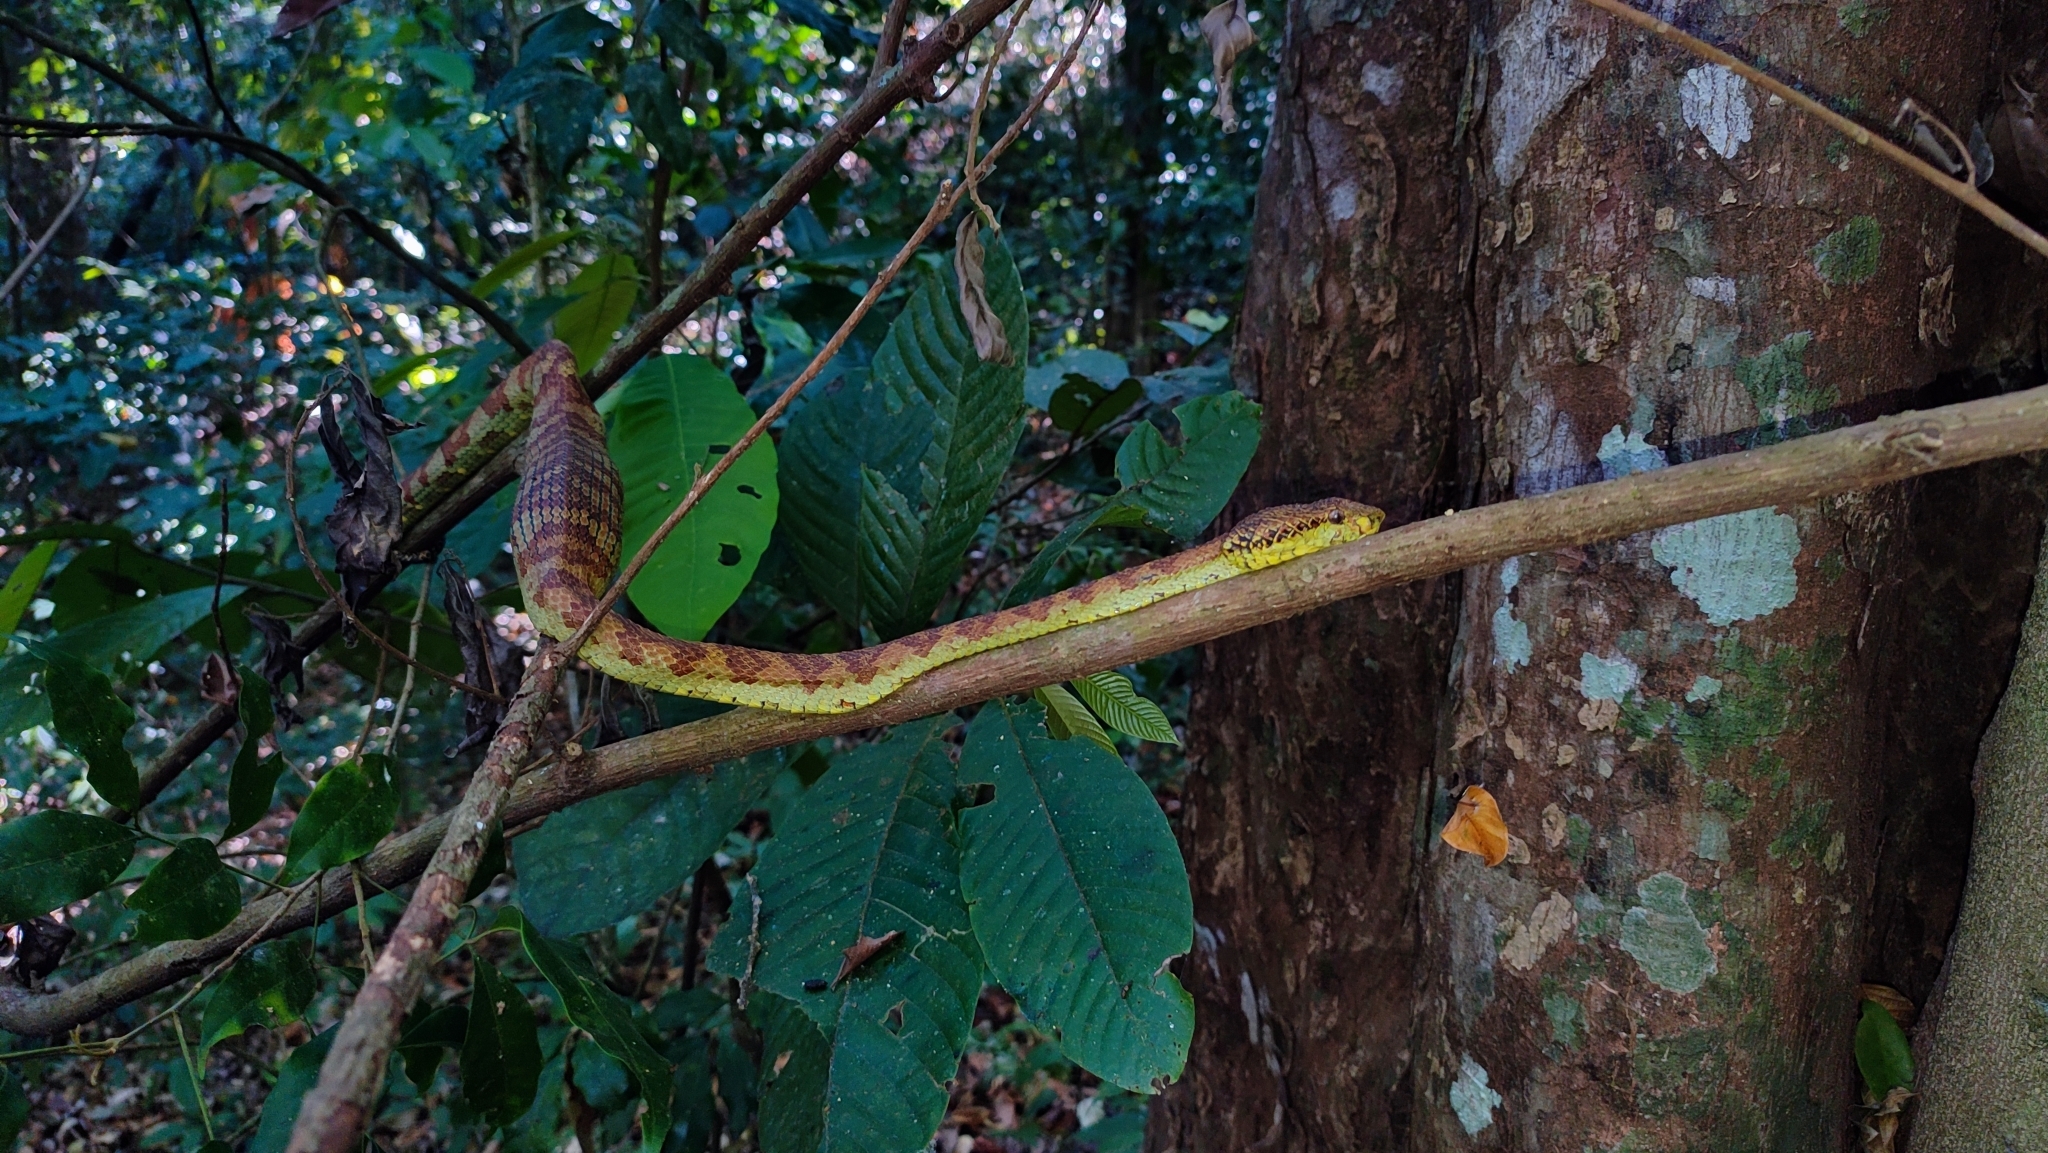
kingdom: Animalia
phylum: Chordata
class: Squamata
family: Viperidae
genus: Craspedocephalus
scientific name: Craspedocephalus anamallensis
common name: Malabarian pit viper
